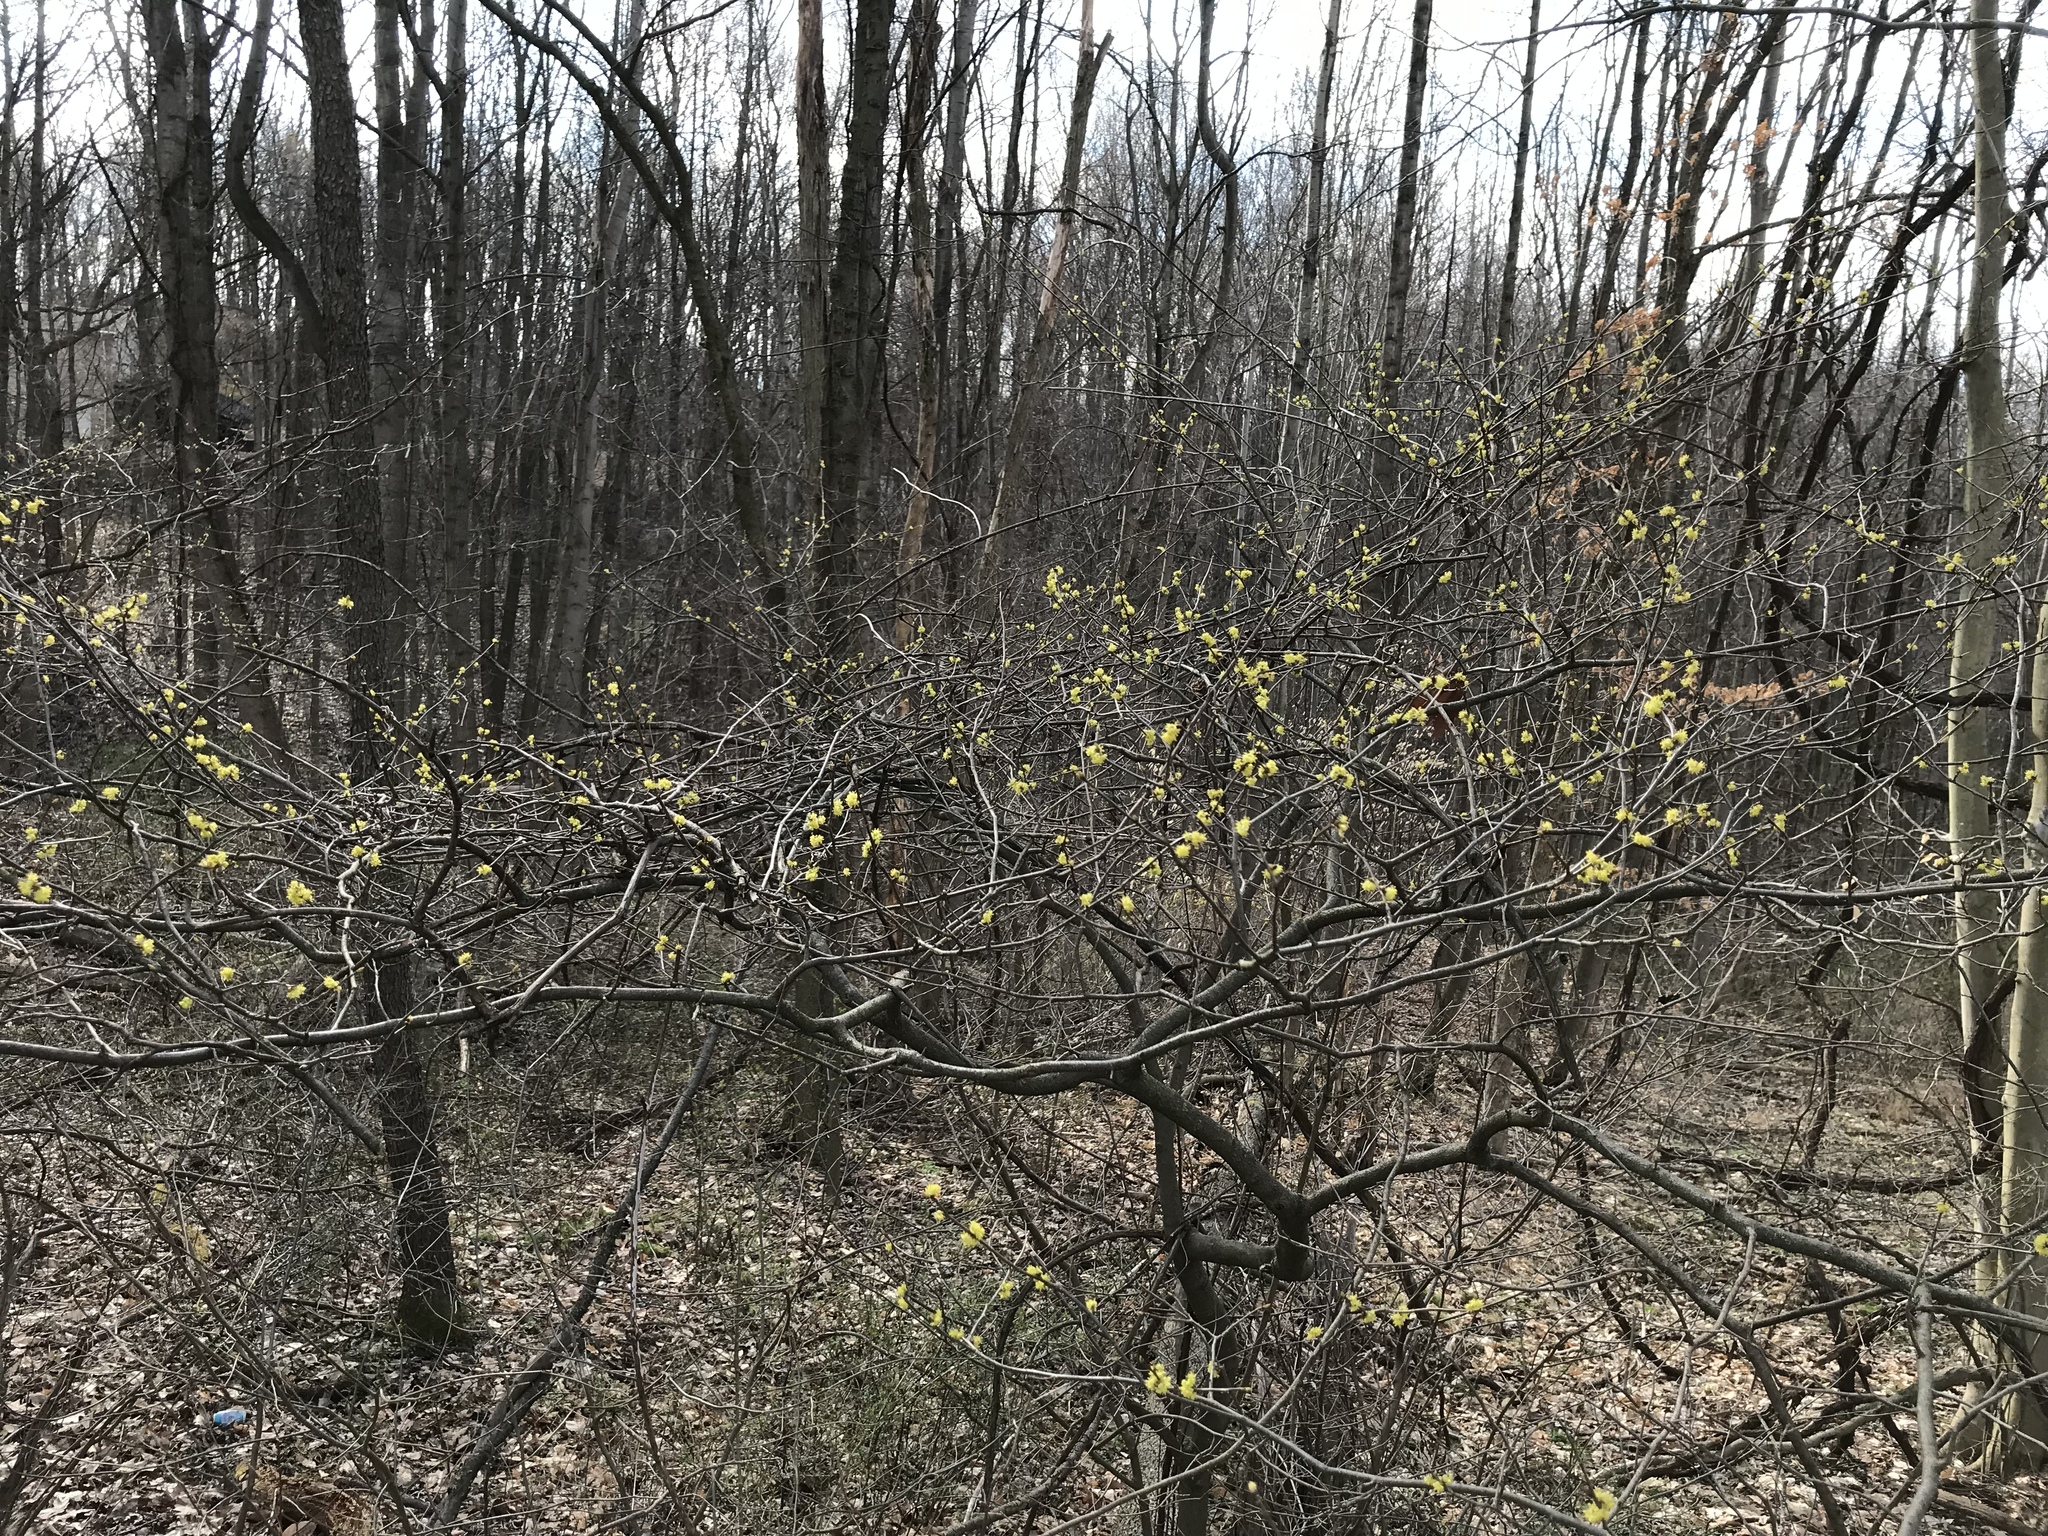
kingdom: Plantae
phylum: Tracheophyta
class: Magnoliopsida
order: Laurales
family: Lauraceae
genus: Lindera
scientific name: Lindera benzoin
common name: Spicebush
